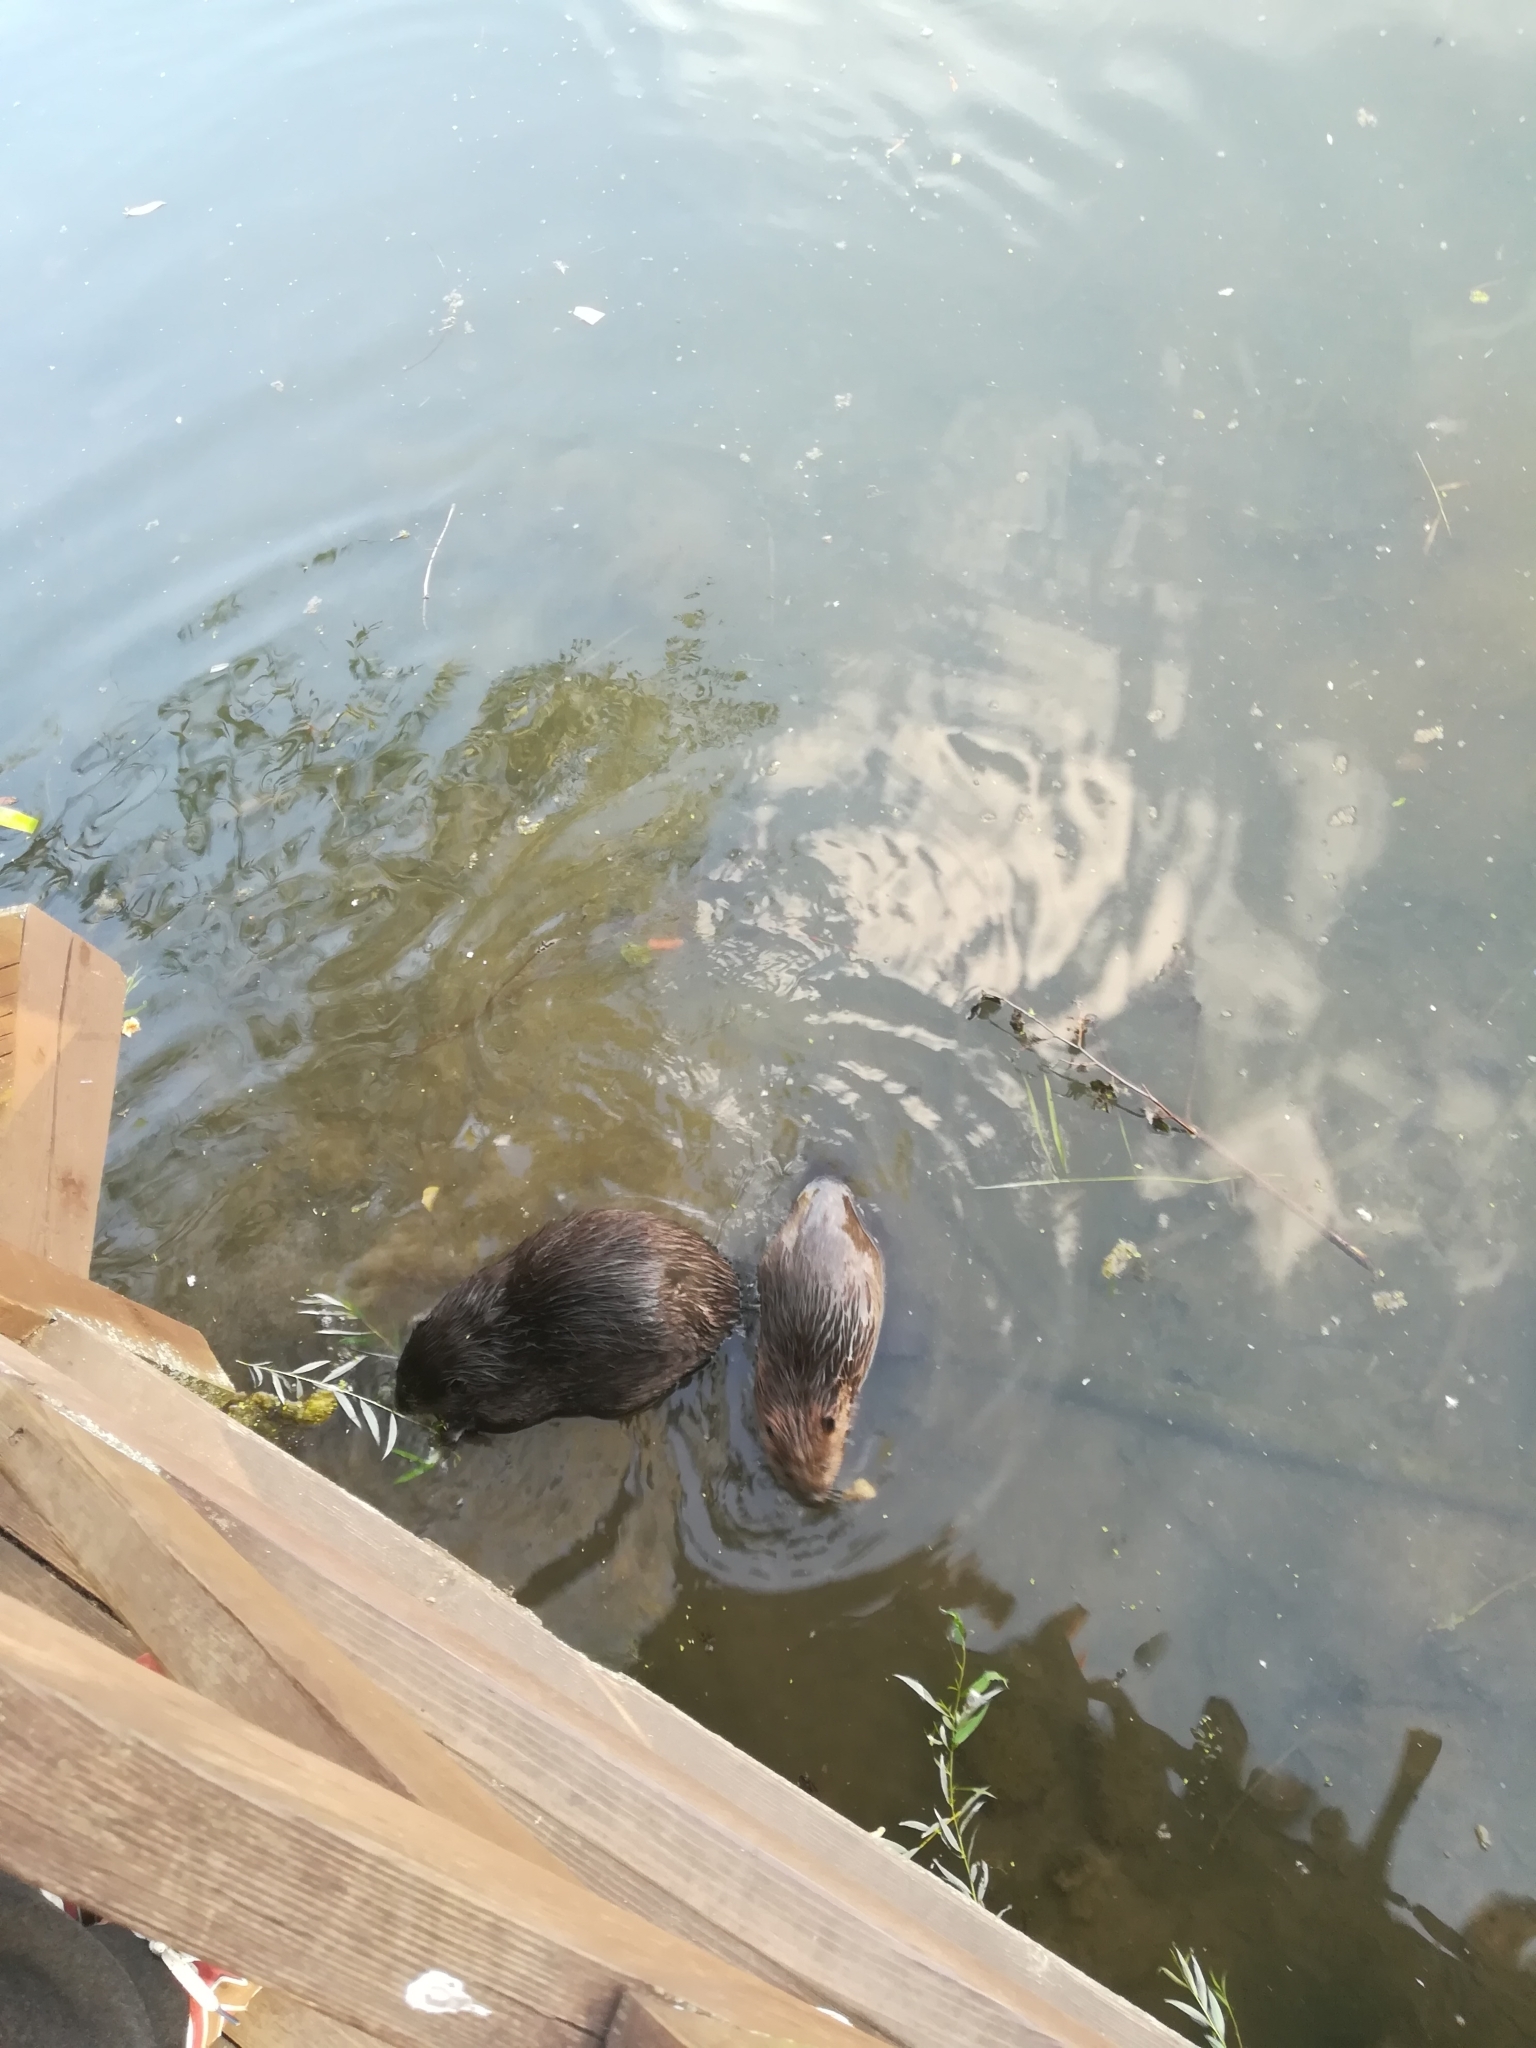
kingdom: Animalia
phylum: Chordata
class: Mammalia
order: Rodentia
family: Castoridae
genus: Castor
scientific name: Castor fiber
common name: Eurasian beaver
